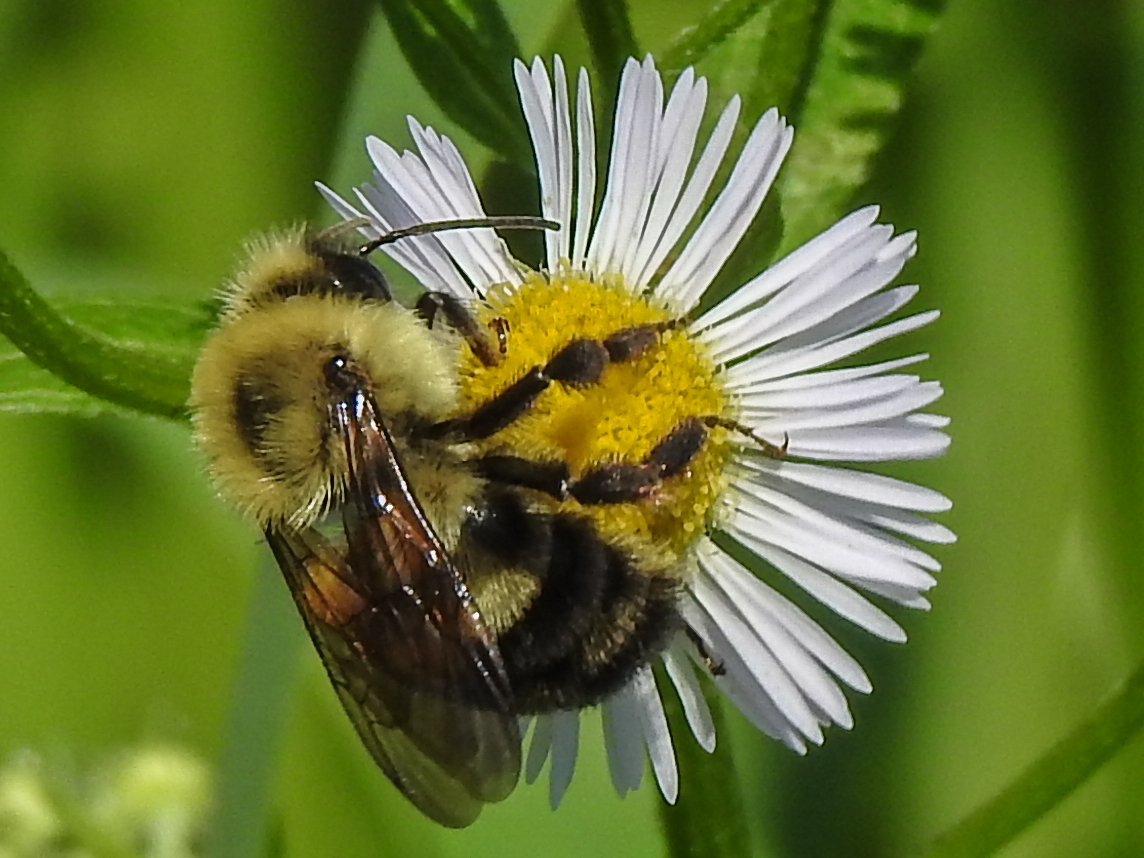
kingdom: Animalia
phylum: Arthropoda
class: Insecta
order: Hymenoptera
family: Apidae
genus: Bombus
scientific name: Bombus bimaculatus
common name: Two-spotted bumble bee
